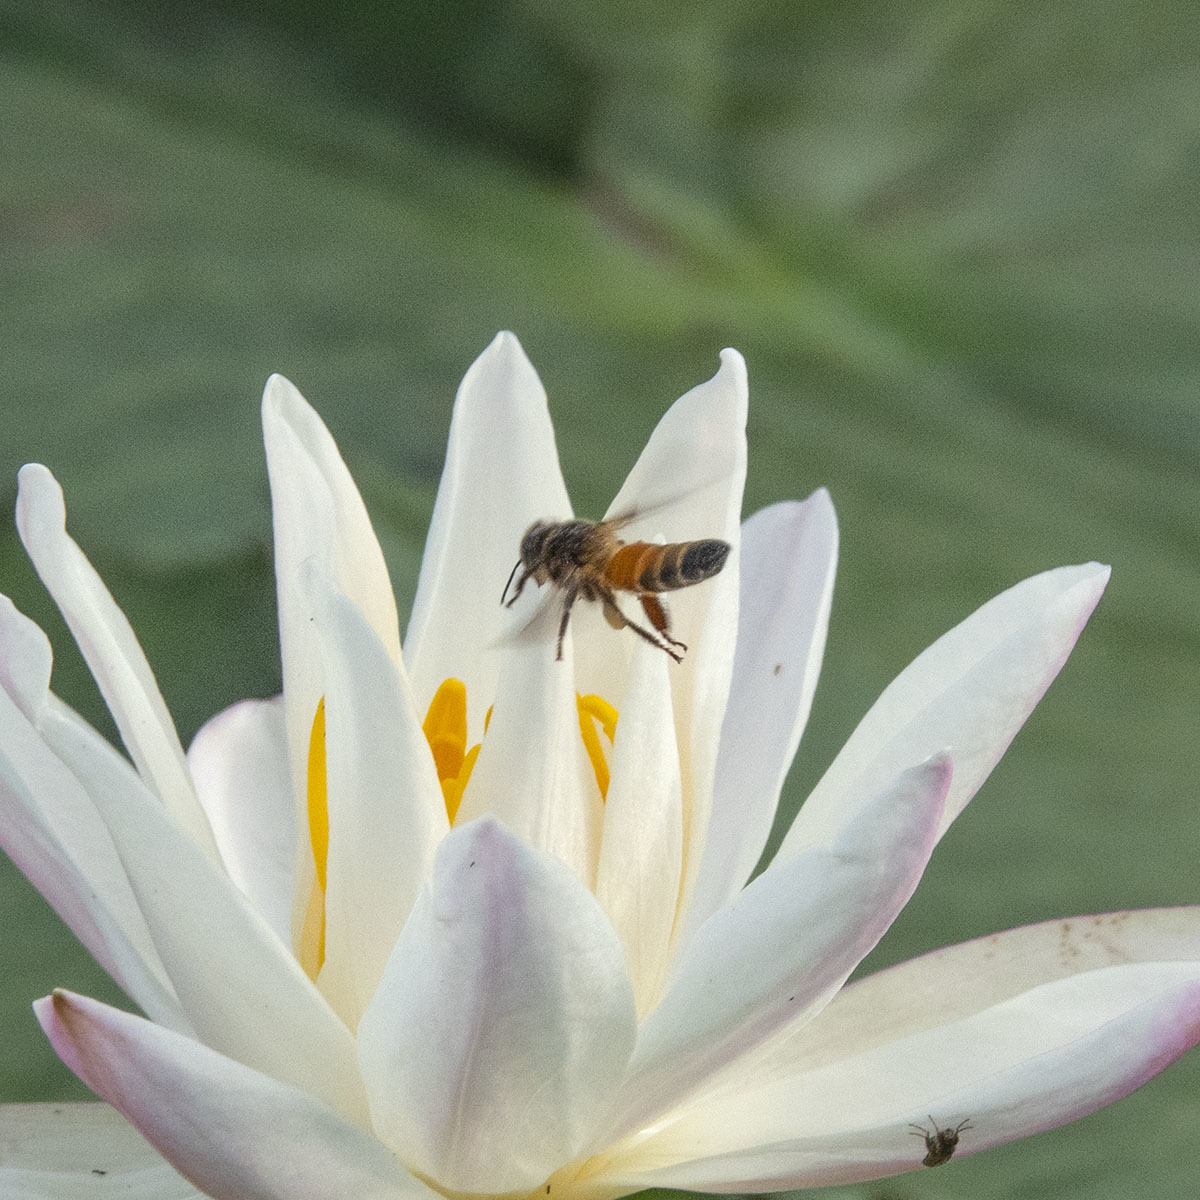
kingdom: Animalia
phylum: Arthropoda
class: Insecta
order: Hymenoptera
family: Apidae
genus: Apis
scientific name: Apis dorsata
